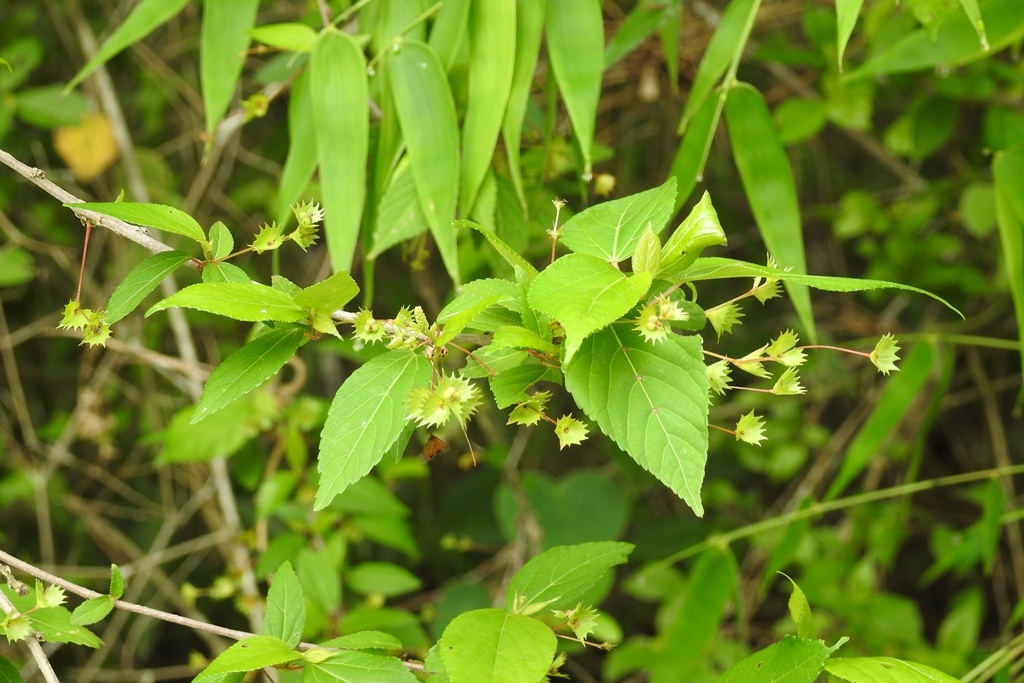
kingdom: Plantae
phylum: Tracheophyta
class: Magnoliopsida
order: Malpighiales
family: Euphorbiaceae
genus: Acalypha
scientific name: Acalypha leptopoda
